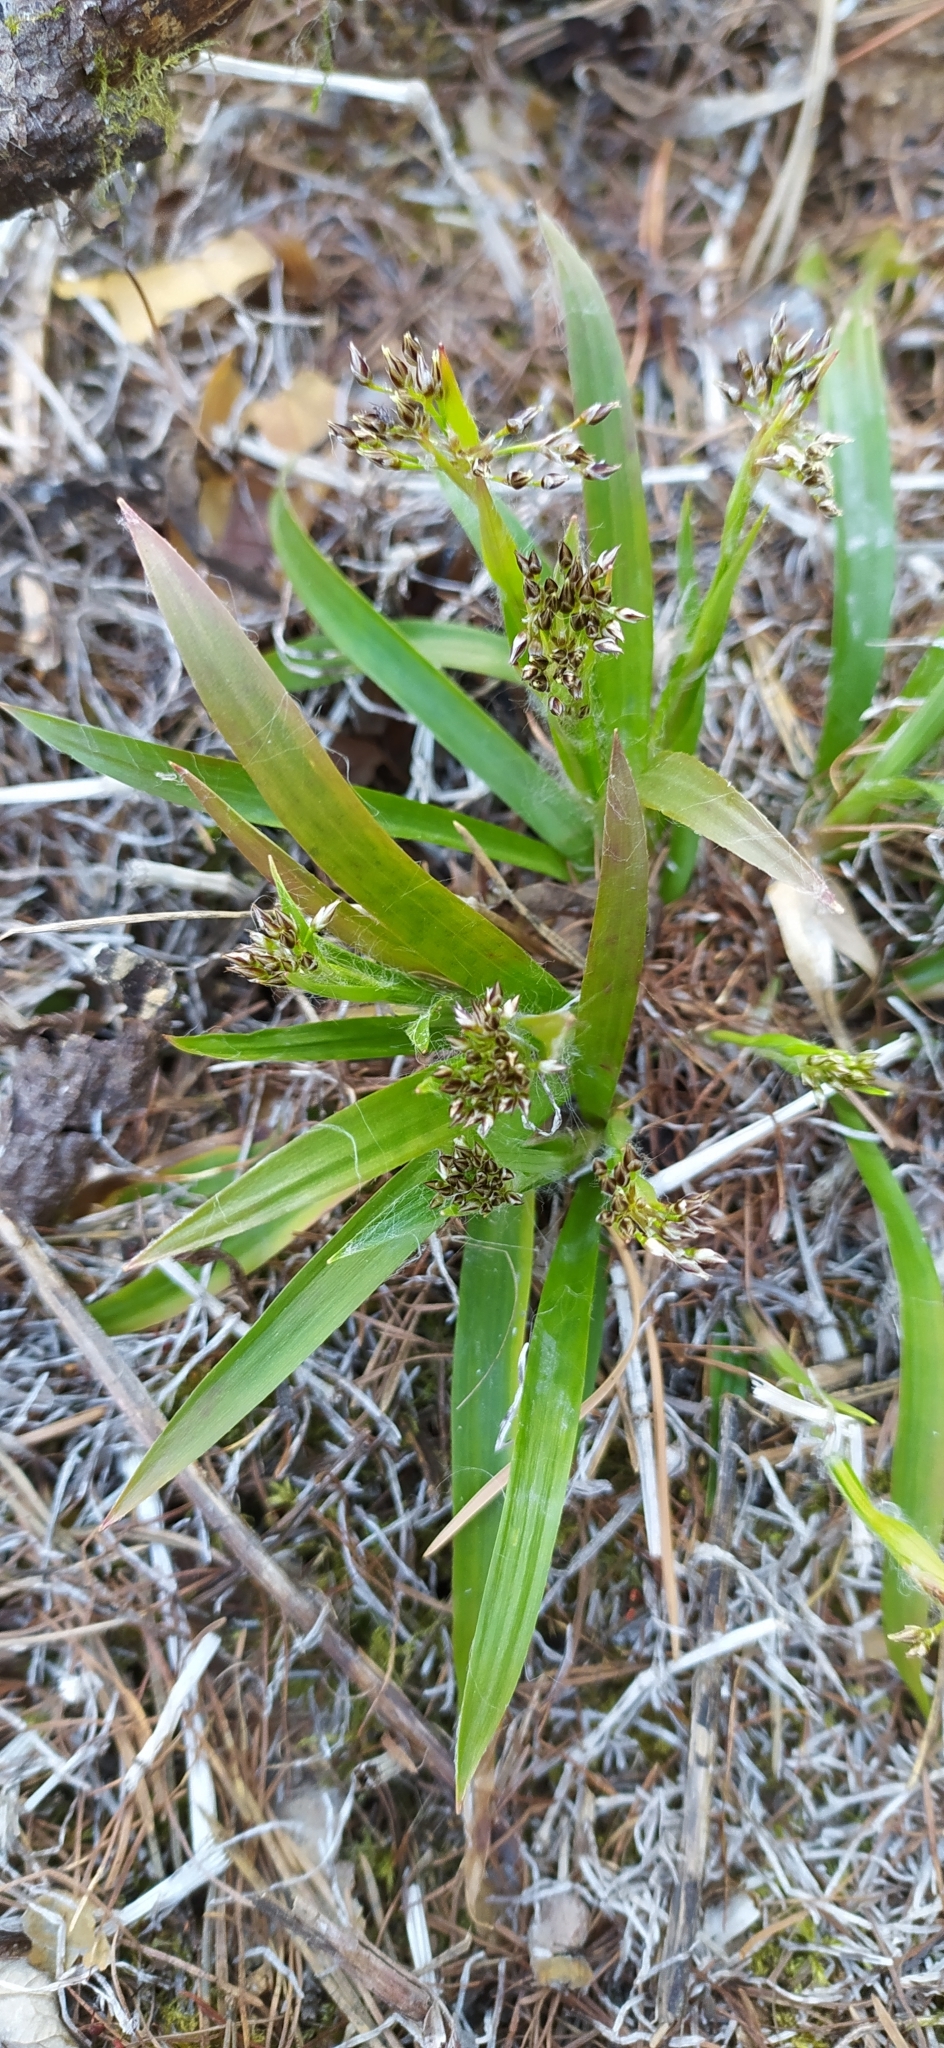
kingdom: Plantae
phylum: Tracheophyta
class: Liliopsida
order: Poales
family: Juncaceae
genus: Luzula
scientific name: Luzula pilosa
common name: Hairy wood-rush
